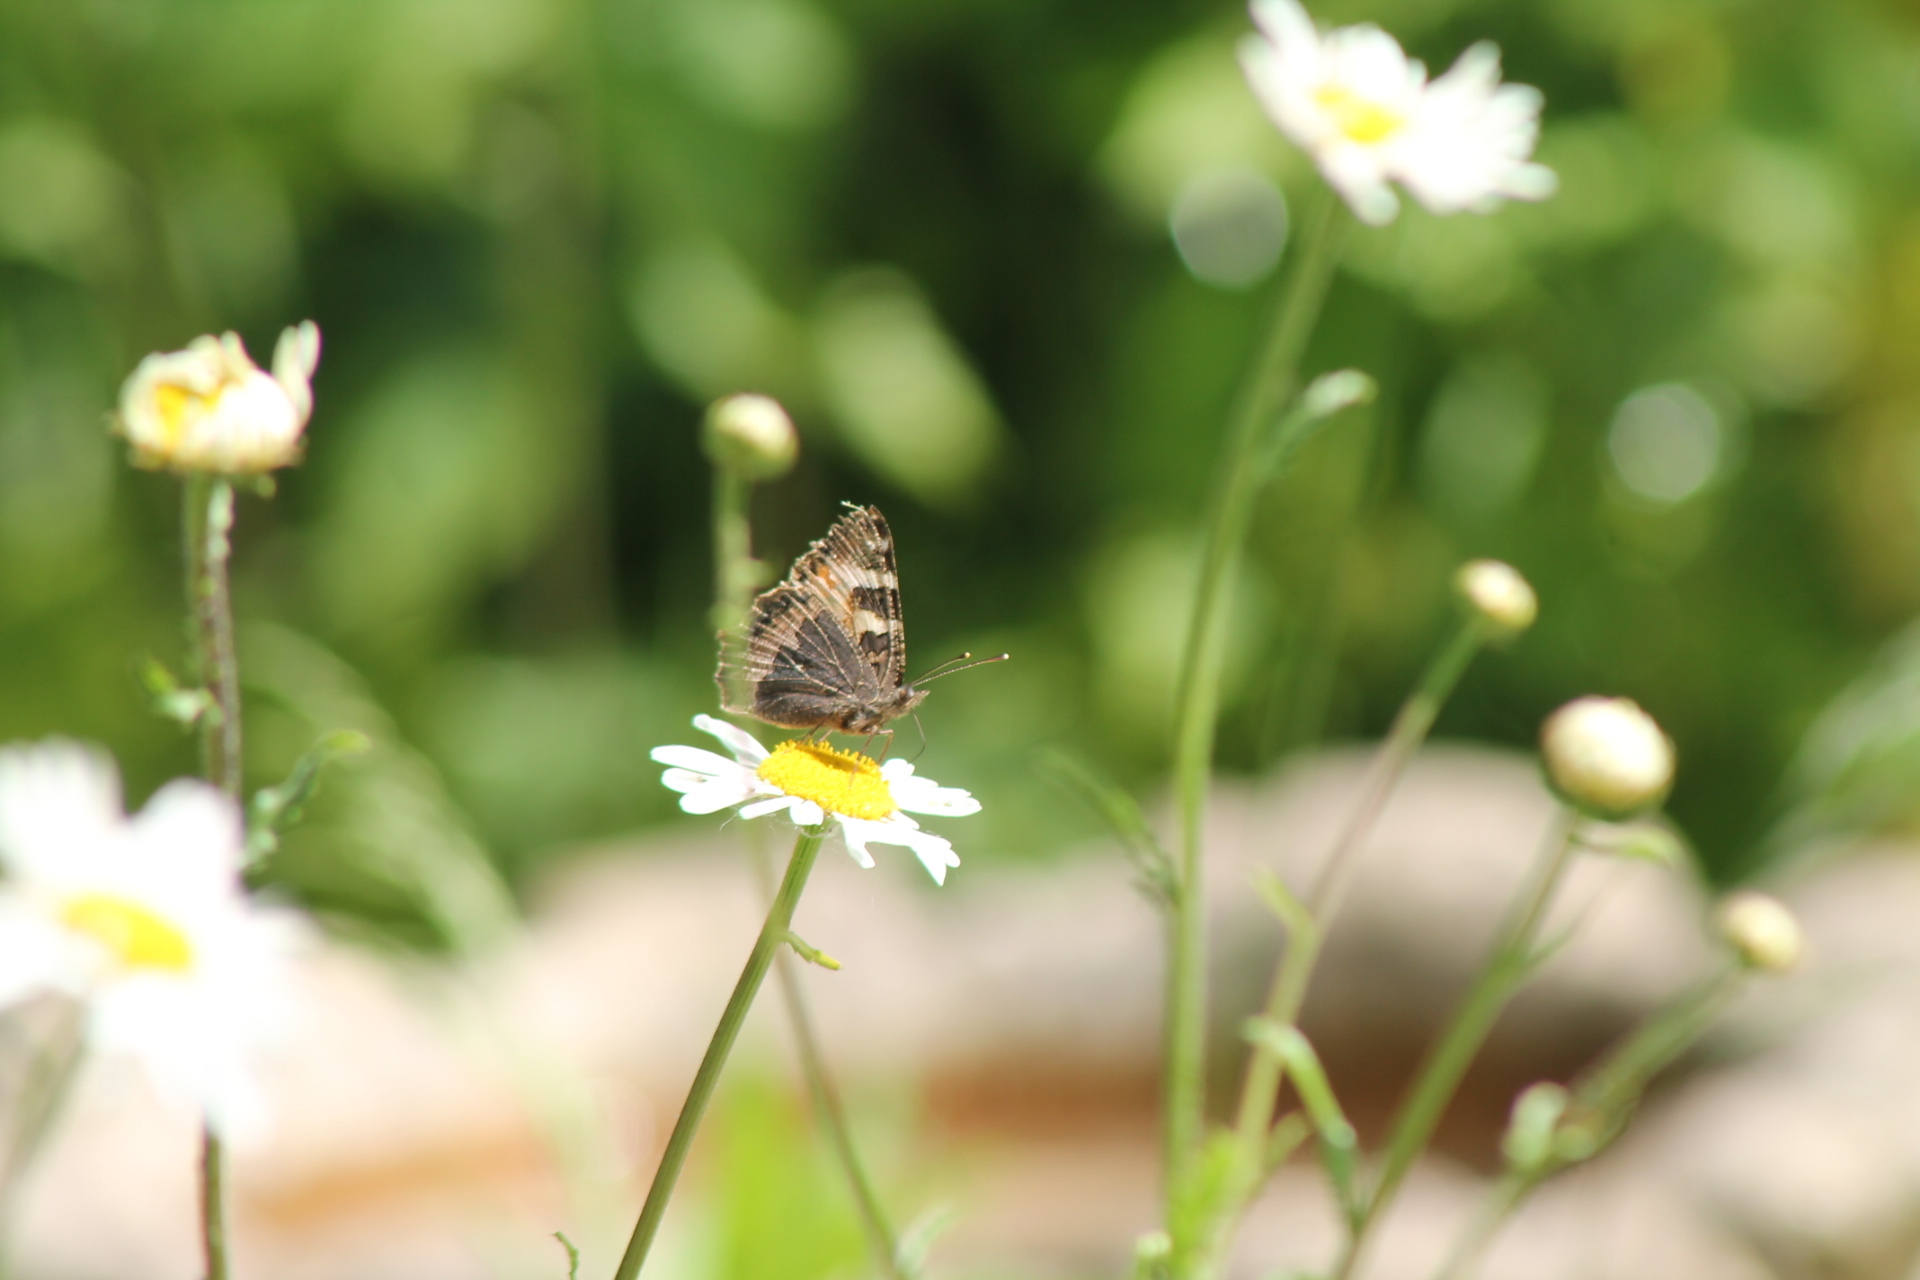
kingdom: Animalia
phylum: Arthropoda
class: Insecta
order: Lepidoptera
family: Nymphalidae
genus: Aglais
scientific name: Aglais urticae
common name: Small tortoiseshell
